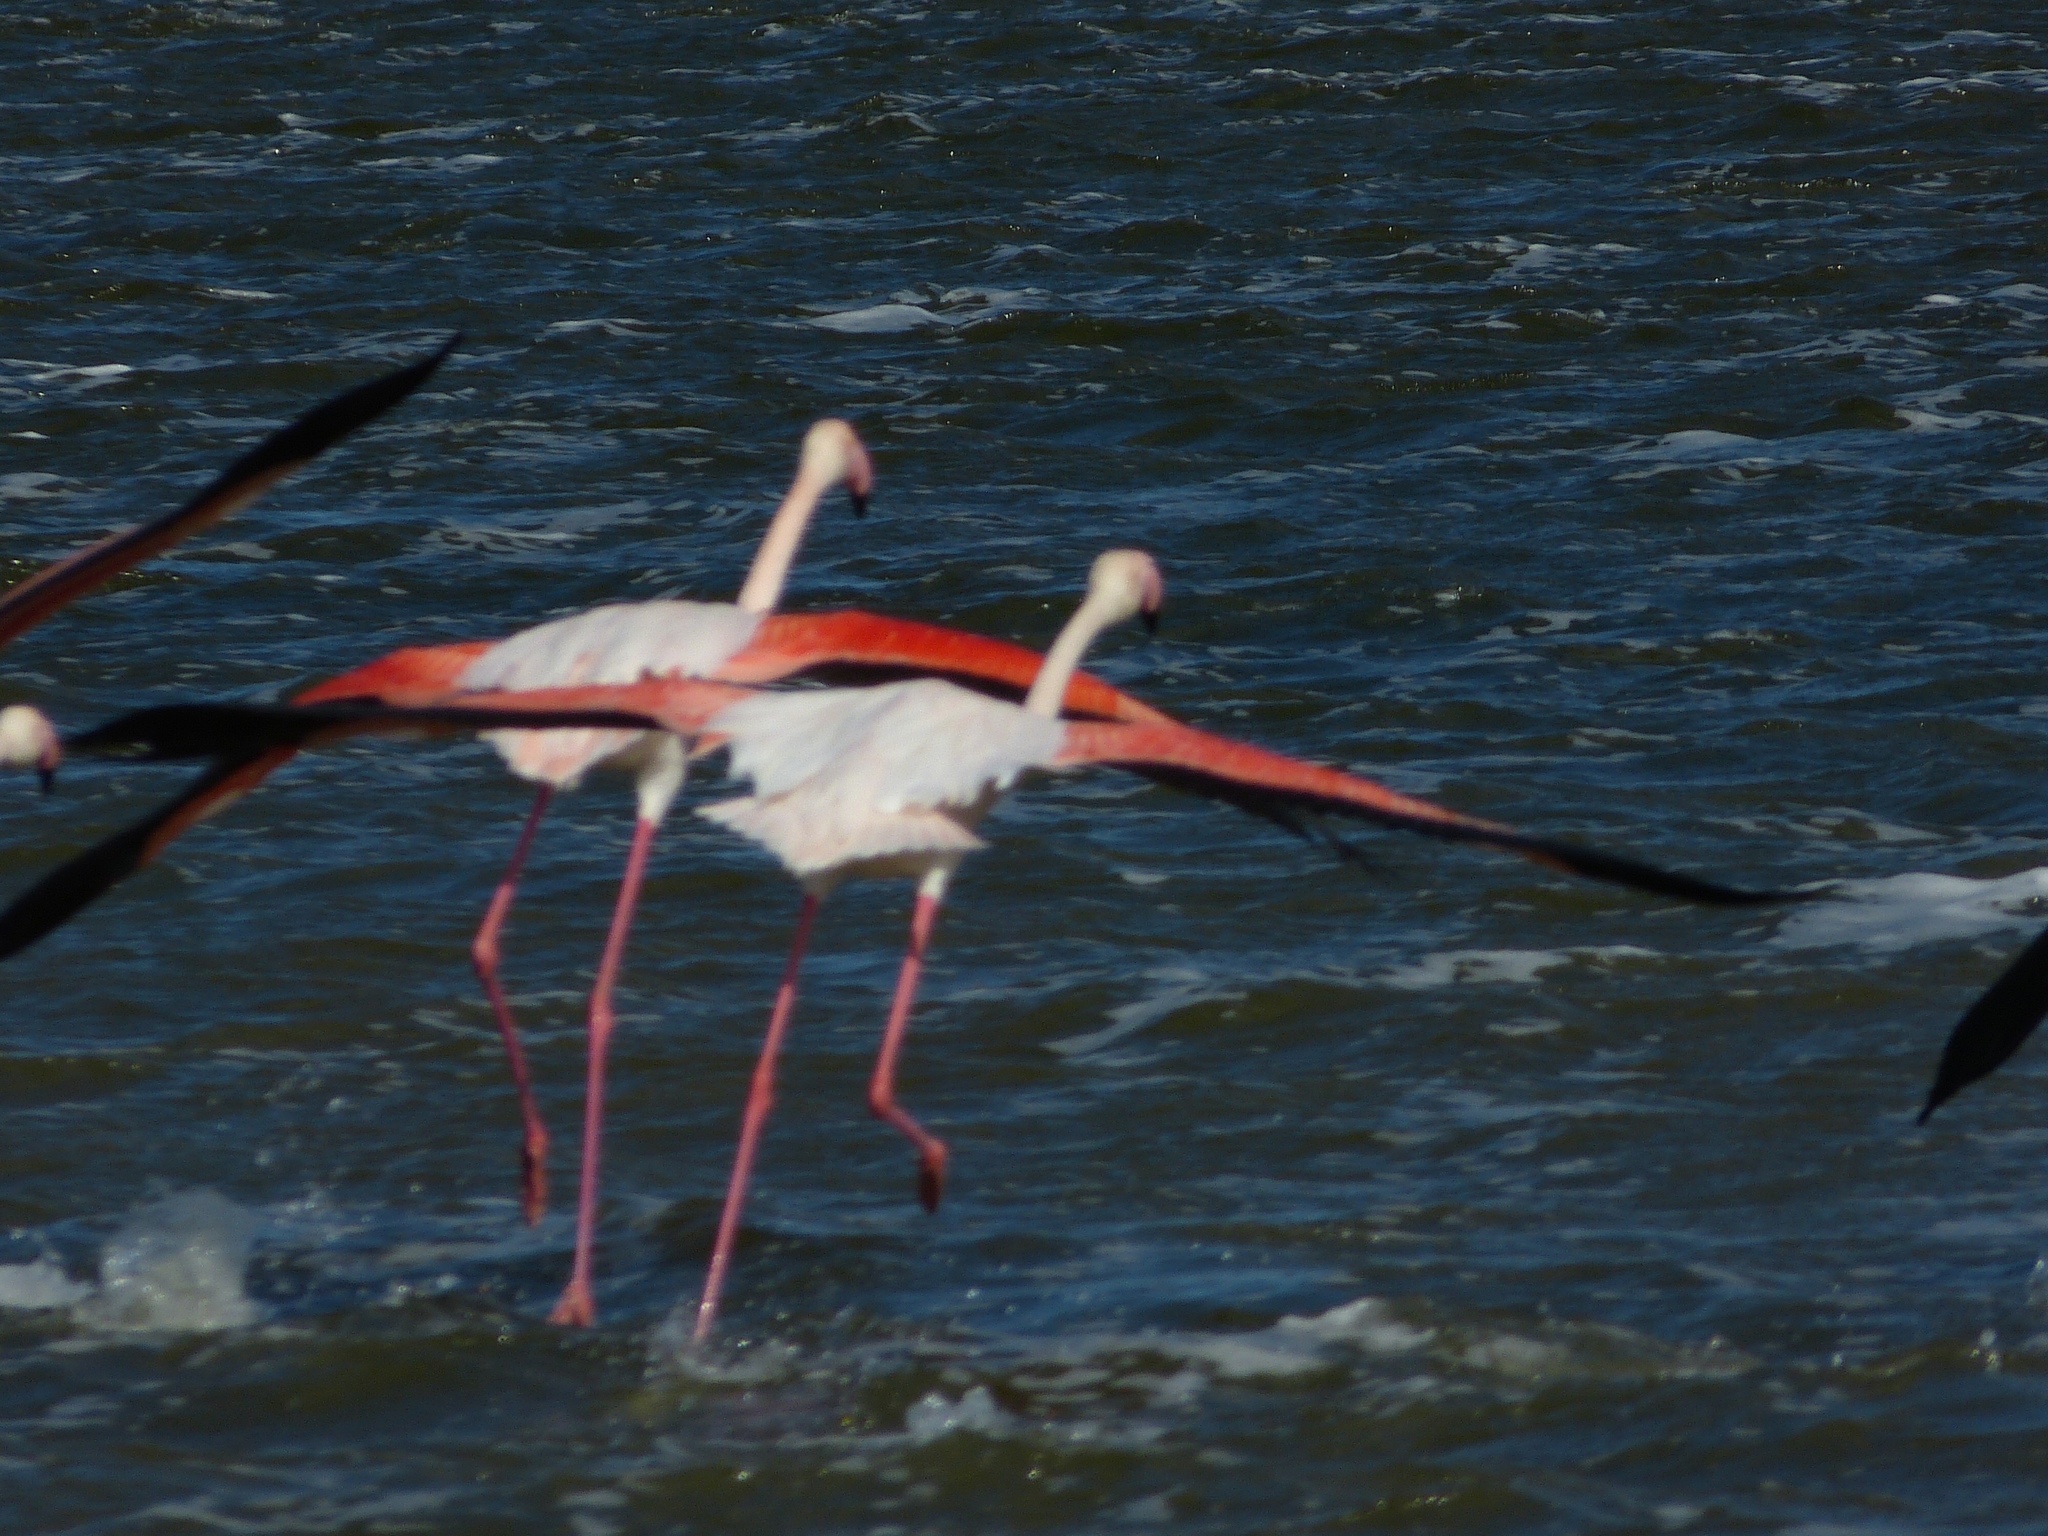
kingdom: Animalia
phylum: Chordata
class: Aves
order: Phoenicopteriformes
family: Phoenicopteridae
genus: Phoenicopterus
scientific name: Phoenicopterus roseus
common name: Greater flamingo
